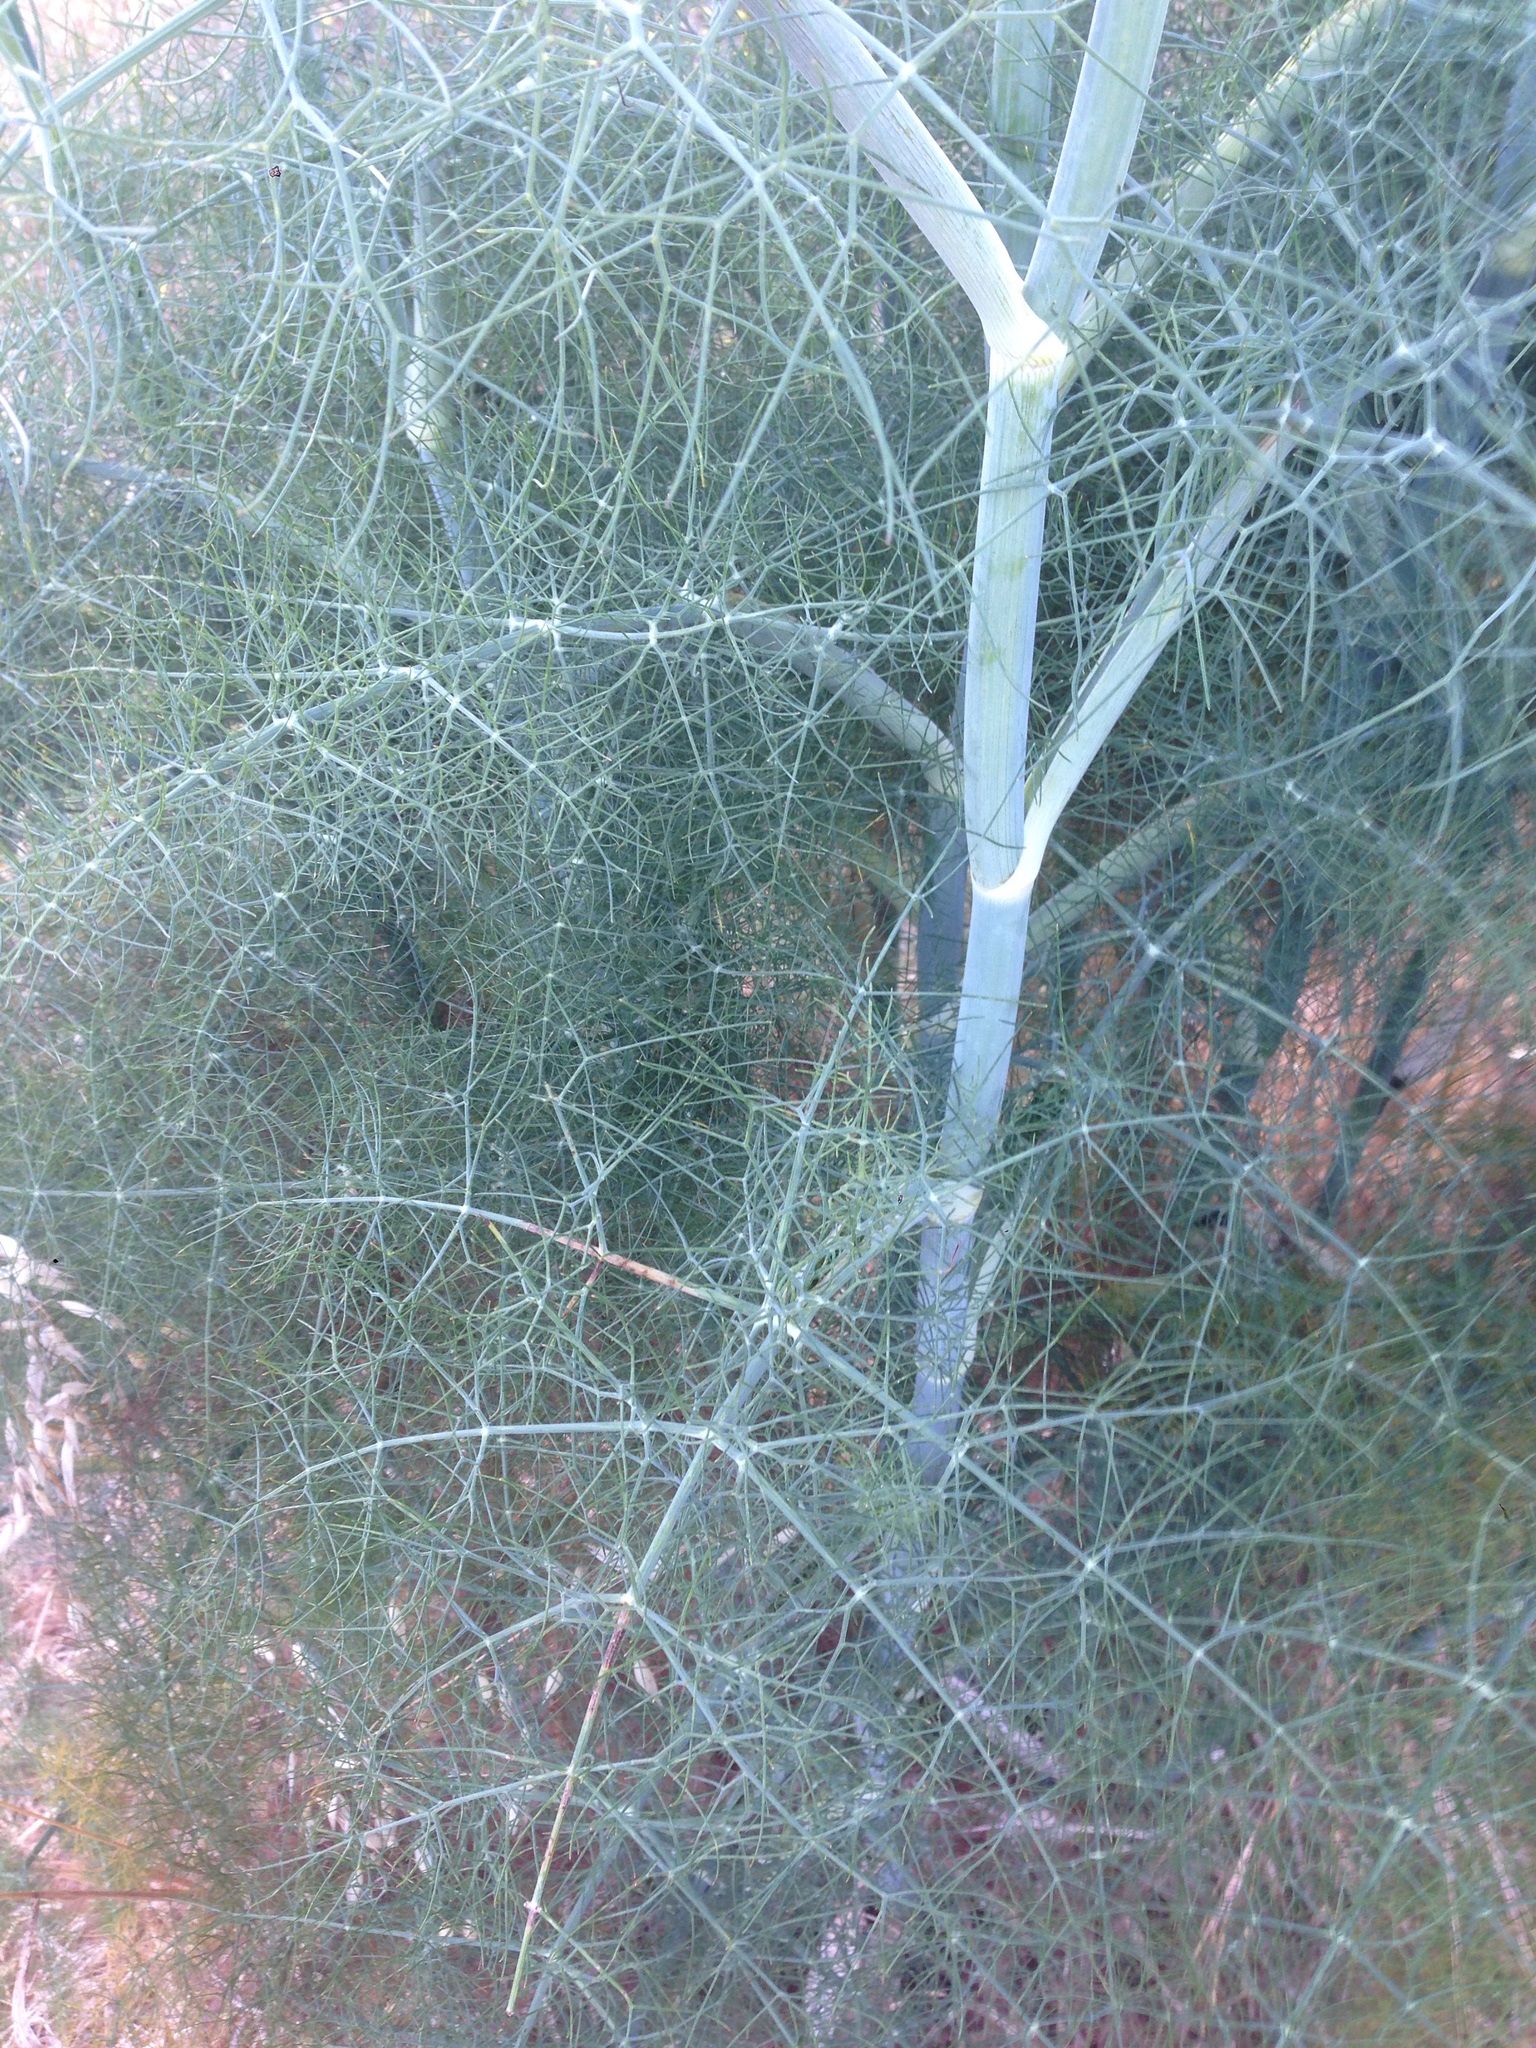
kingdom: Plantae
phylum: Tracheophyta
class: Magnoliopsida
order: Apiales
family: Apiaceae
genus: Foeniculum
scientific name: Foeniculum vulgare
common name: Fennel
